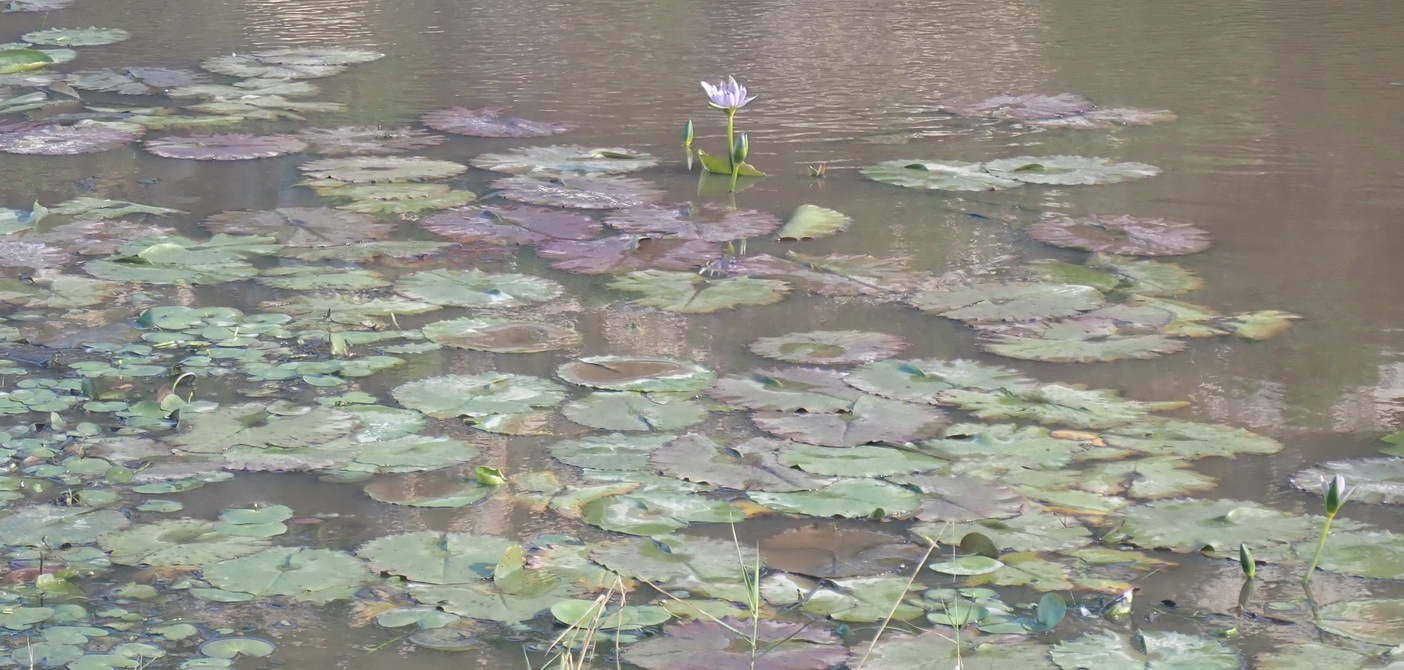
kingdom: Plantae
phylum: Tracheophyta
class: Magnoliopsida
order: Nymphaeales
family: Nymphaeaceae
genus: Nymphaea
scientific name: Nymphaea nouchali
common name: Blue lotus
